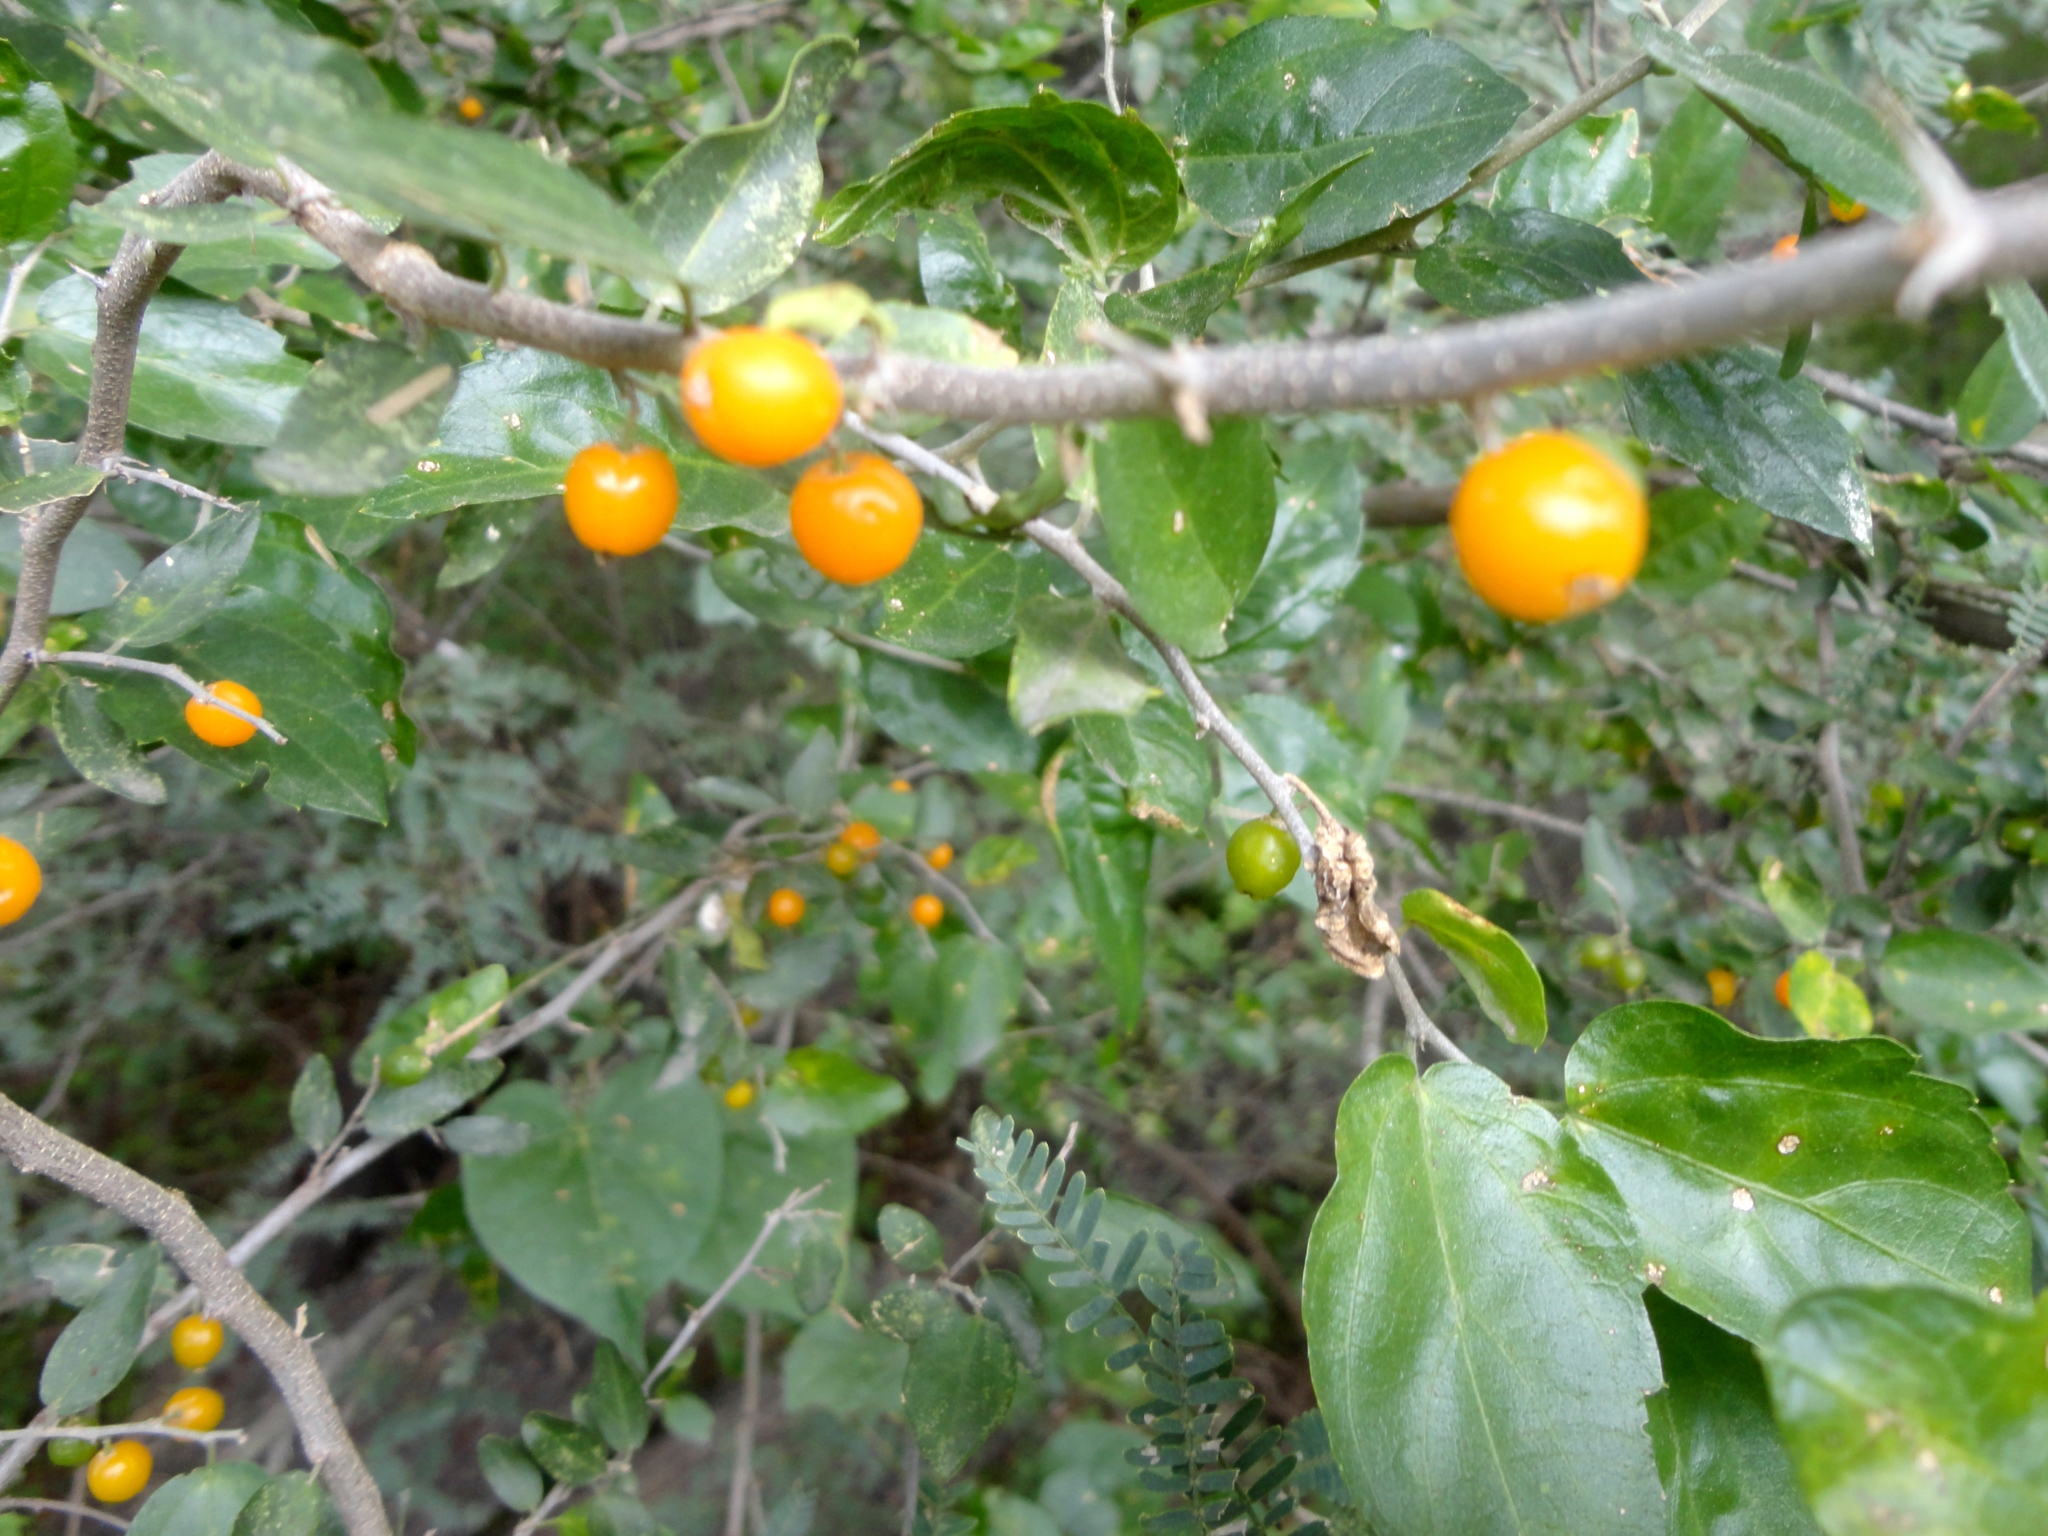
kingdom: Plantae
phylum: Tracheophyta
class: Magnoliopsida
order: Rosales
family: Cannabaceae
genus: Celtis
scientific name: Celtis pallida
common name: Desert hackberry
